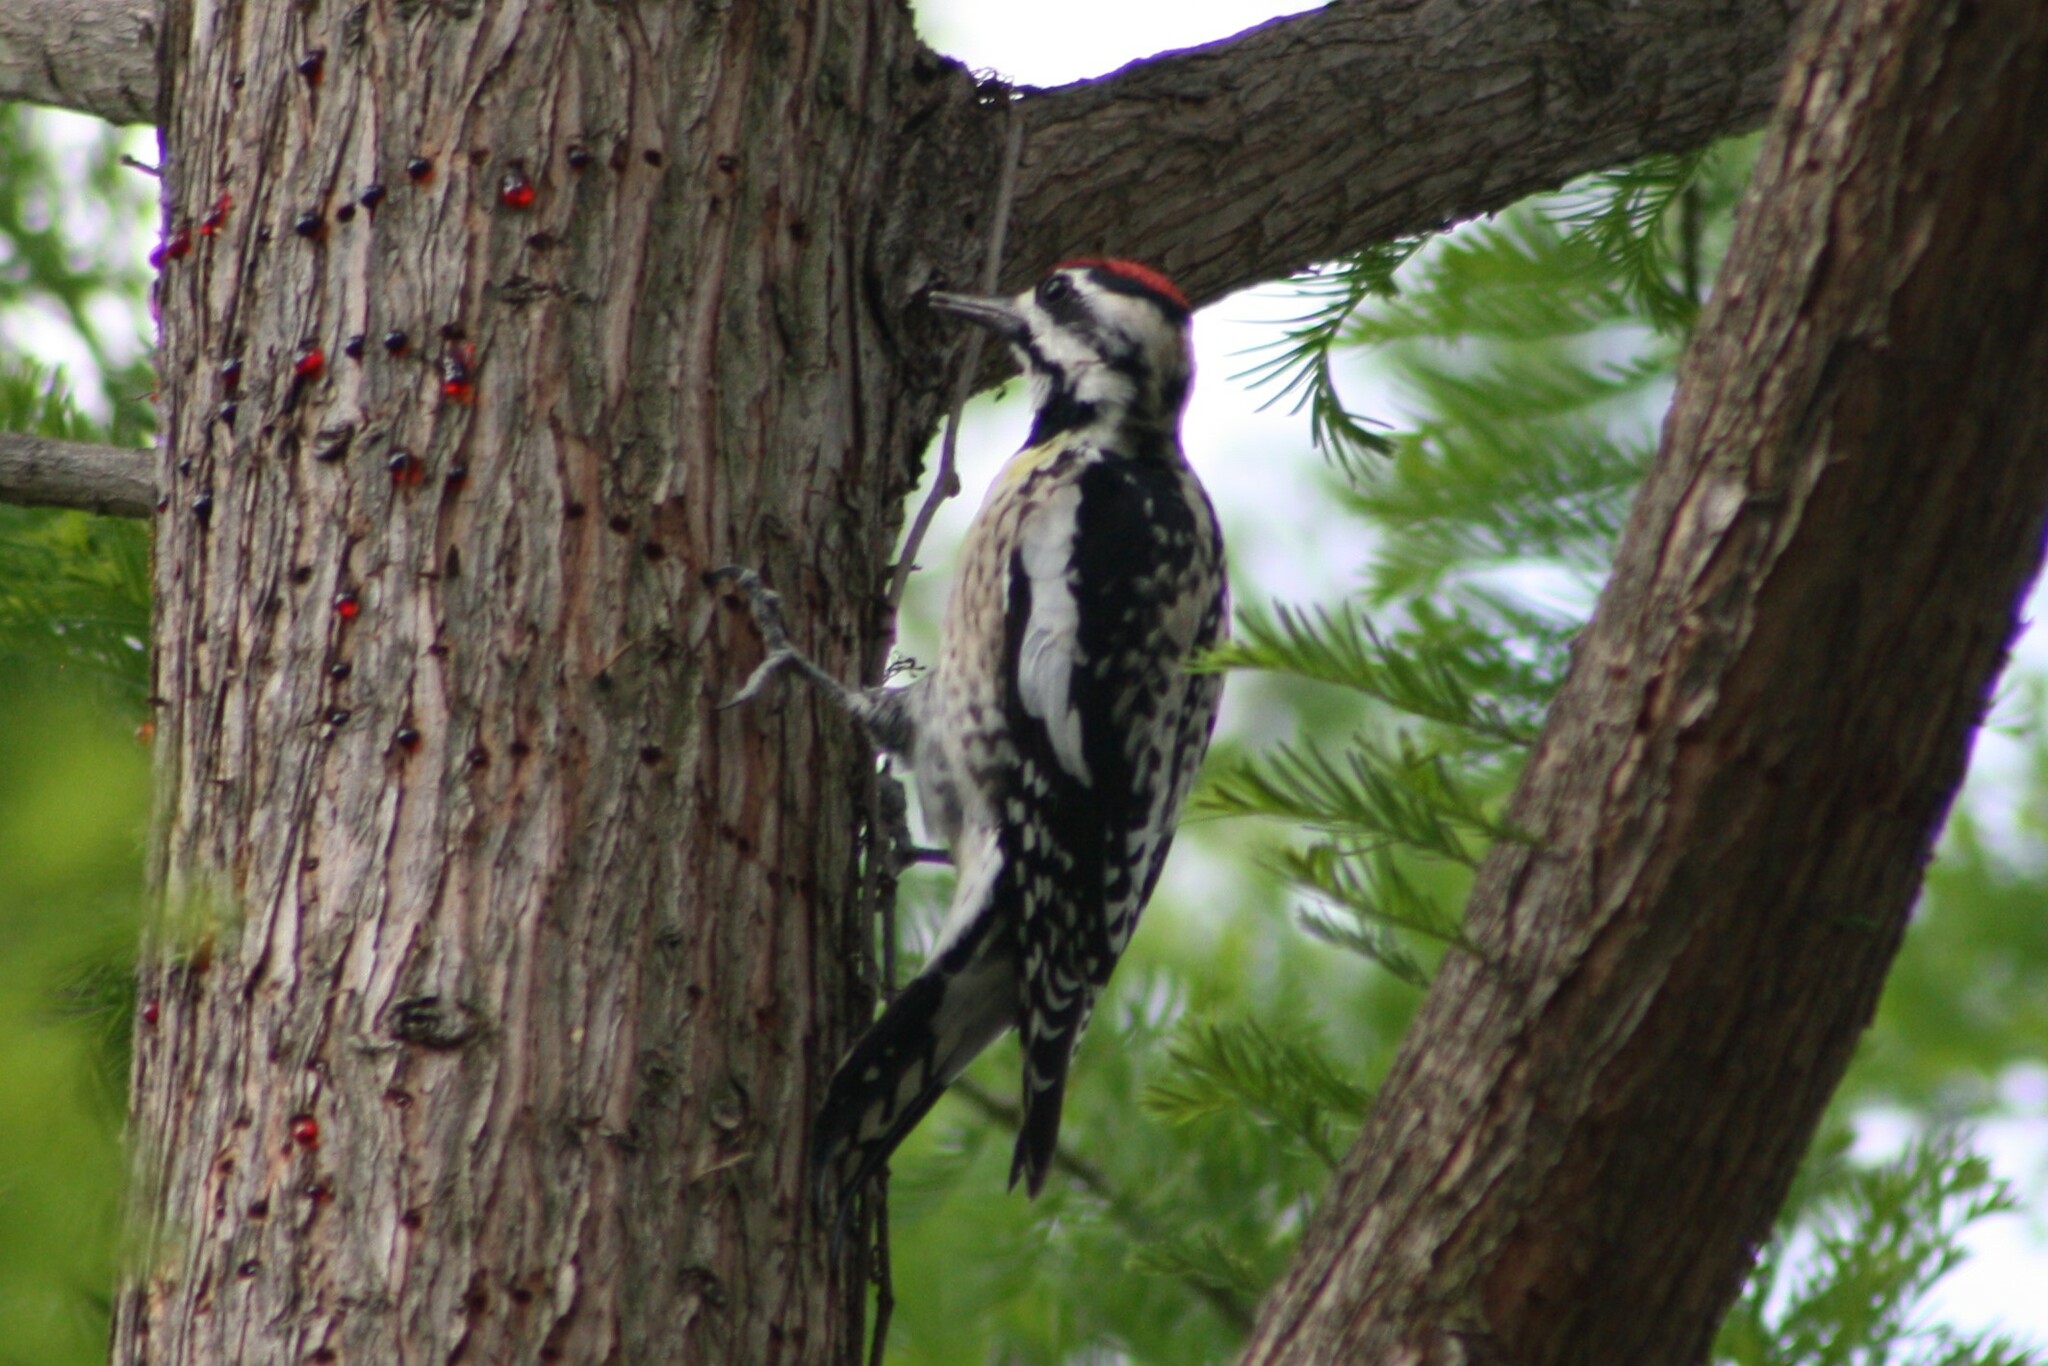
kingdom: Animalia
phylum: Chordata
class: Aves
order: Piciformes
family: Picidae
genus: Sphyrapicus
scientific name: Sphyrapicus varius
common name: Yellow-bellied sapsucker
